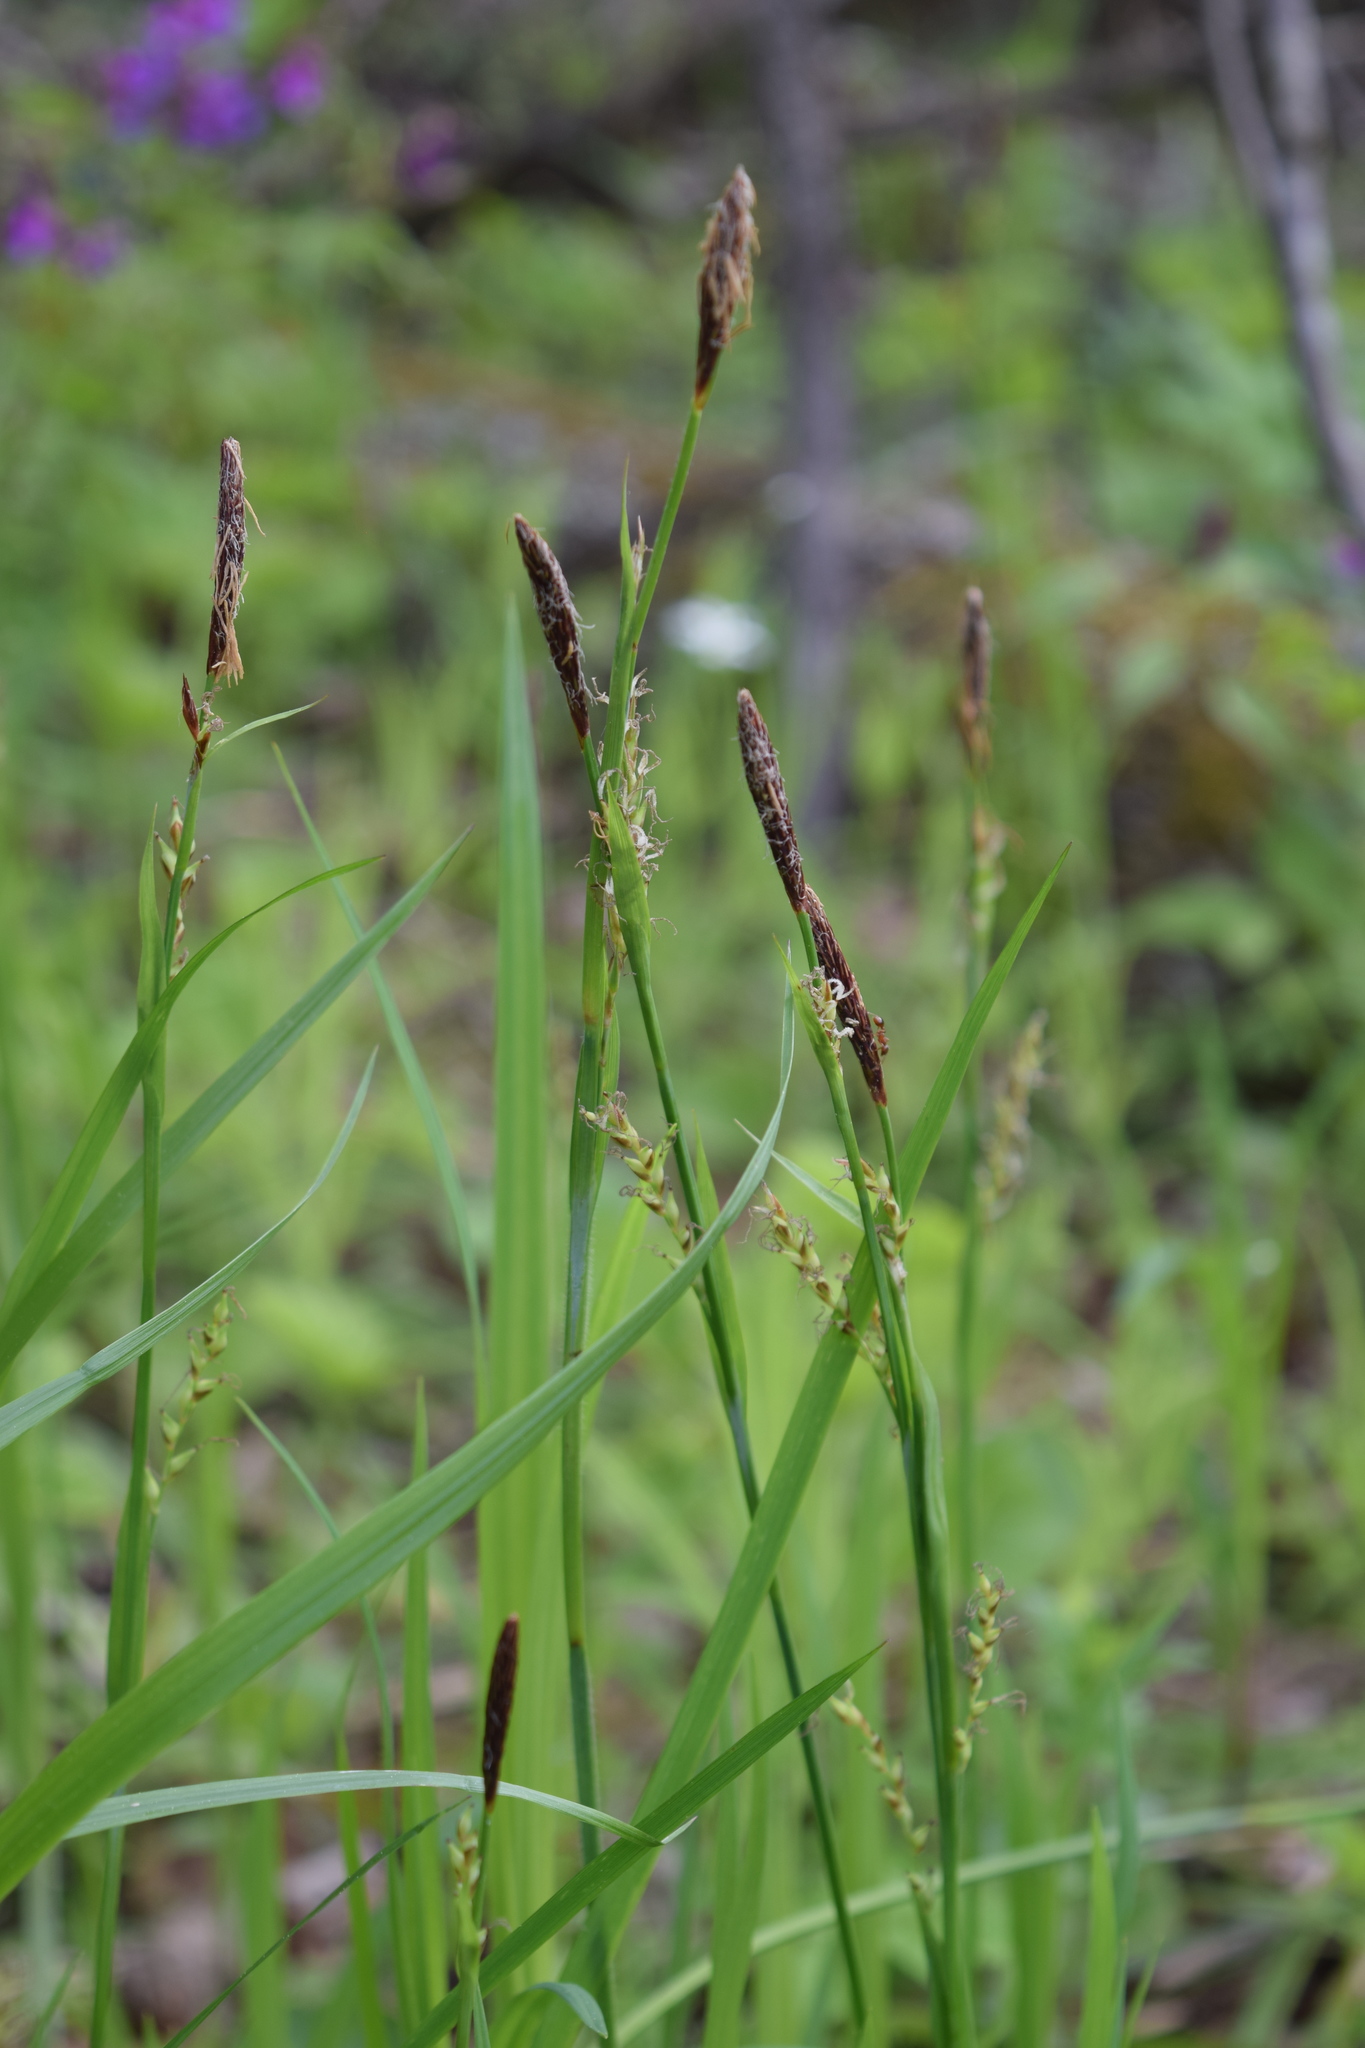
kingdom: Plantae
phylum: Tracheophyta
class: Liliopsida
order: Poales
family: Cyperaceae
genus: Carex
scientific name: Carex pilosa
